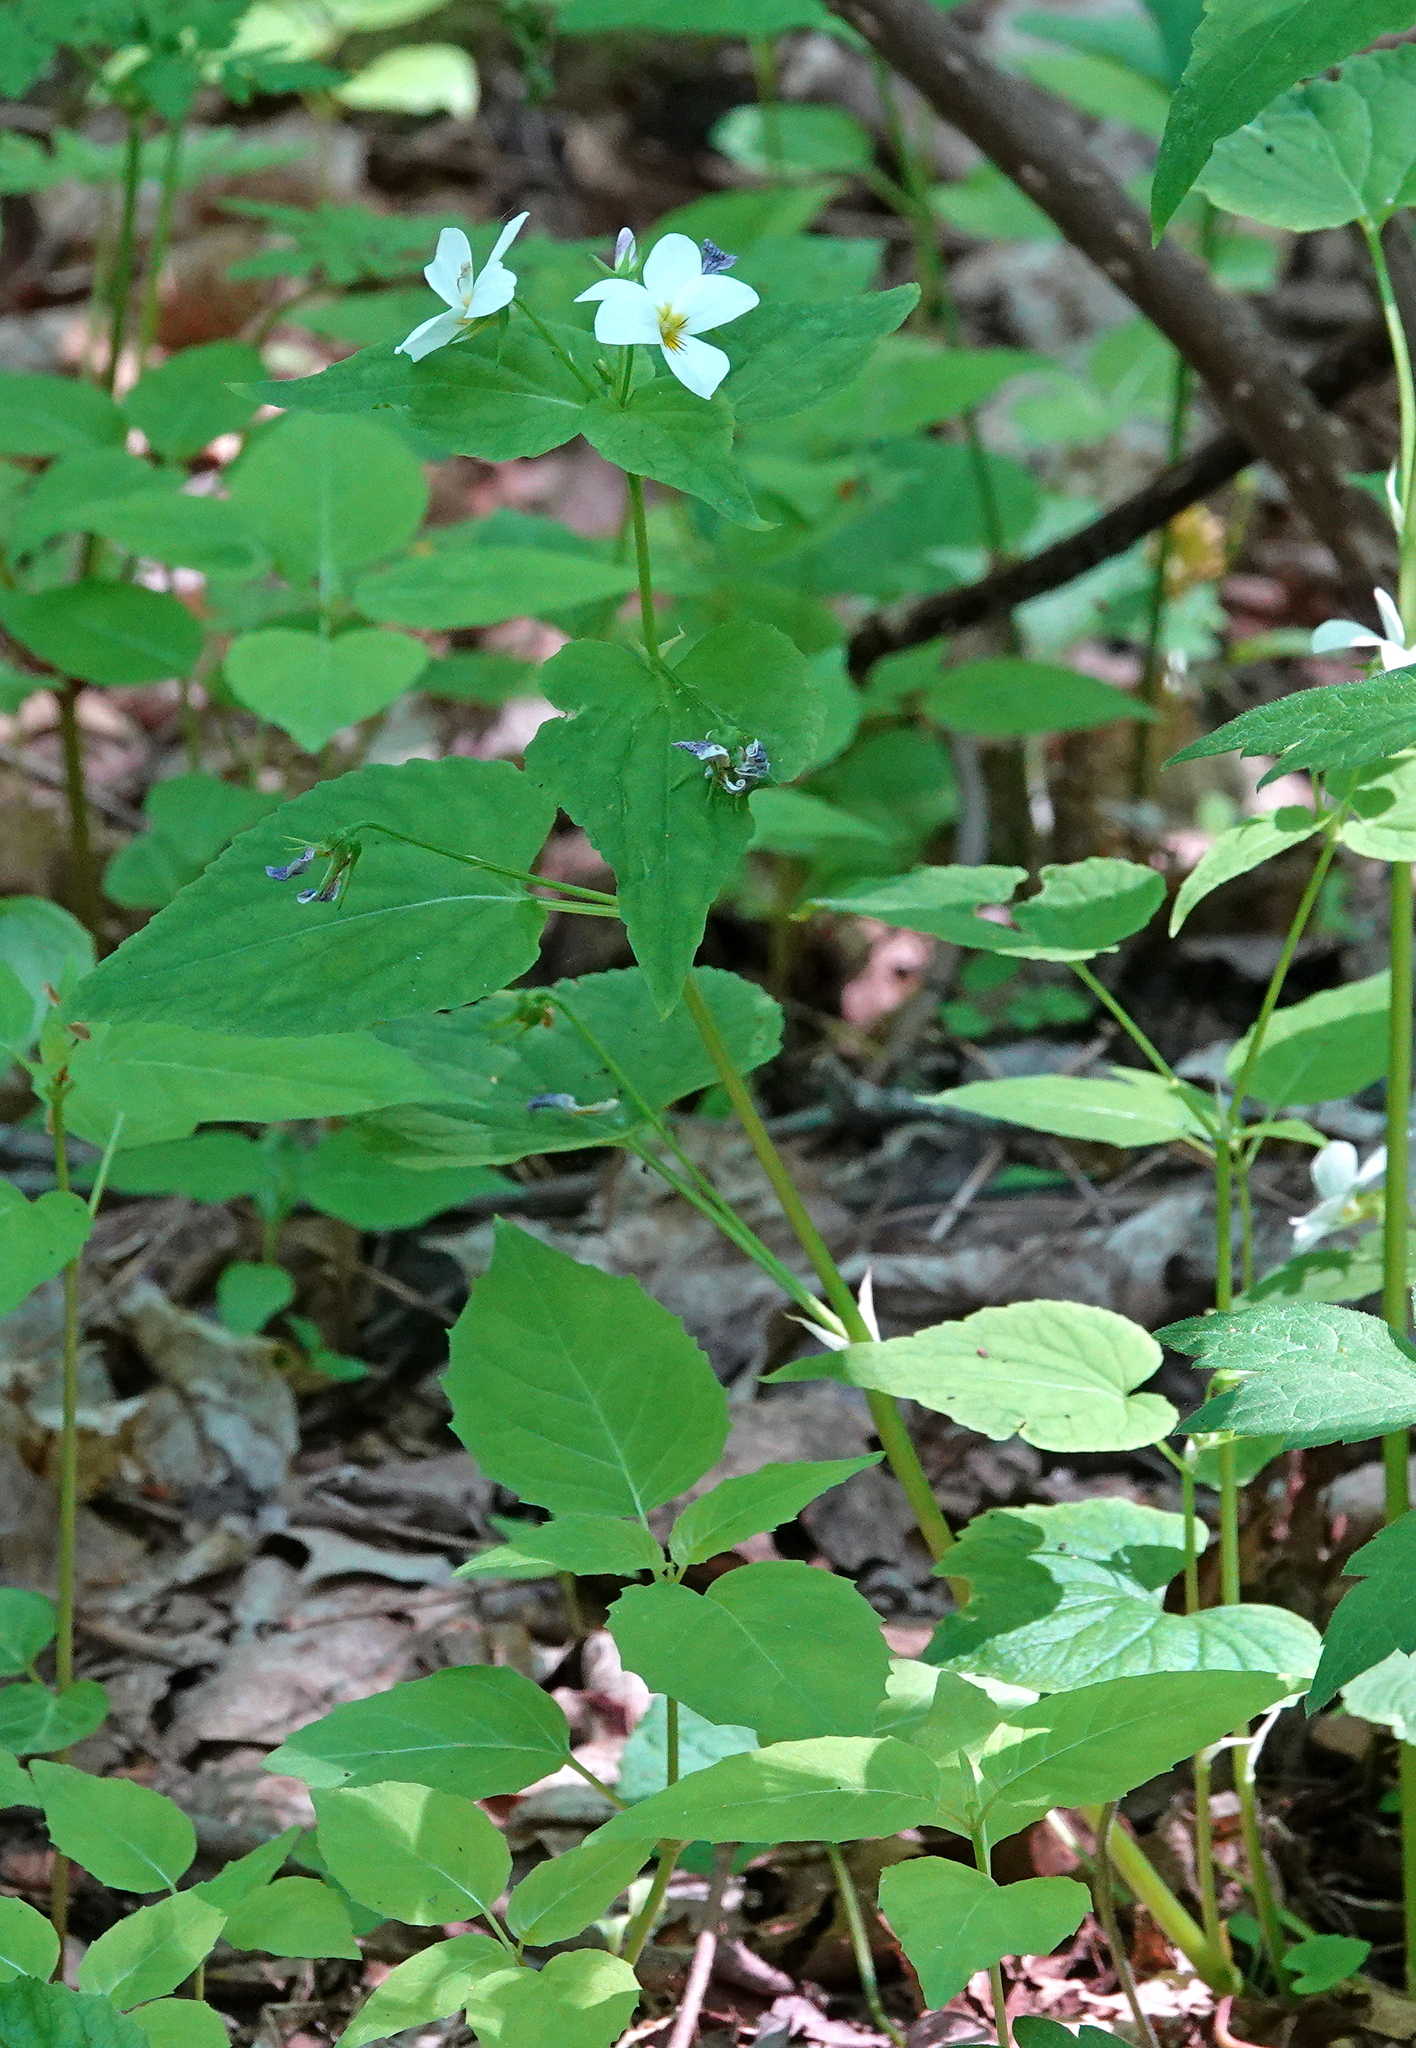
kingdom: Plantae
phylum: Tracheophyta
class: Magnoliopsida
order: Malpighiales
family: Violaceae
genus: Viola
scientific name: Viola canadensis
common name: Canada violet
